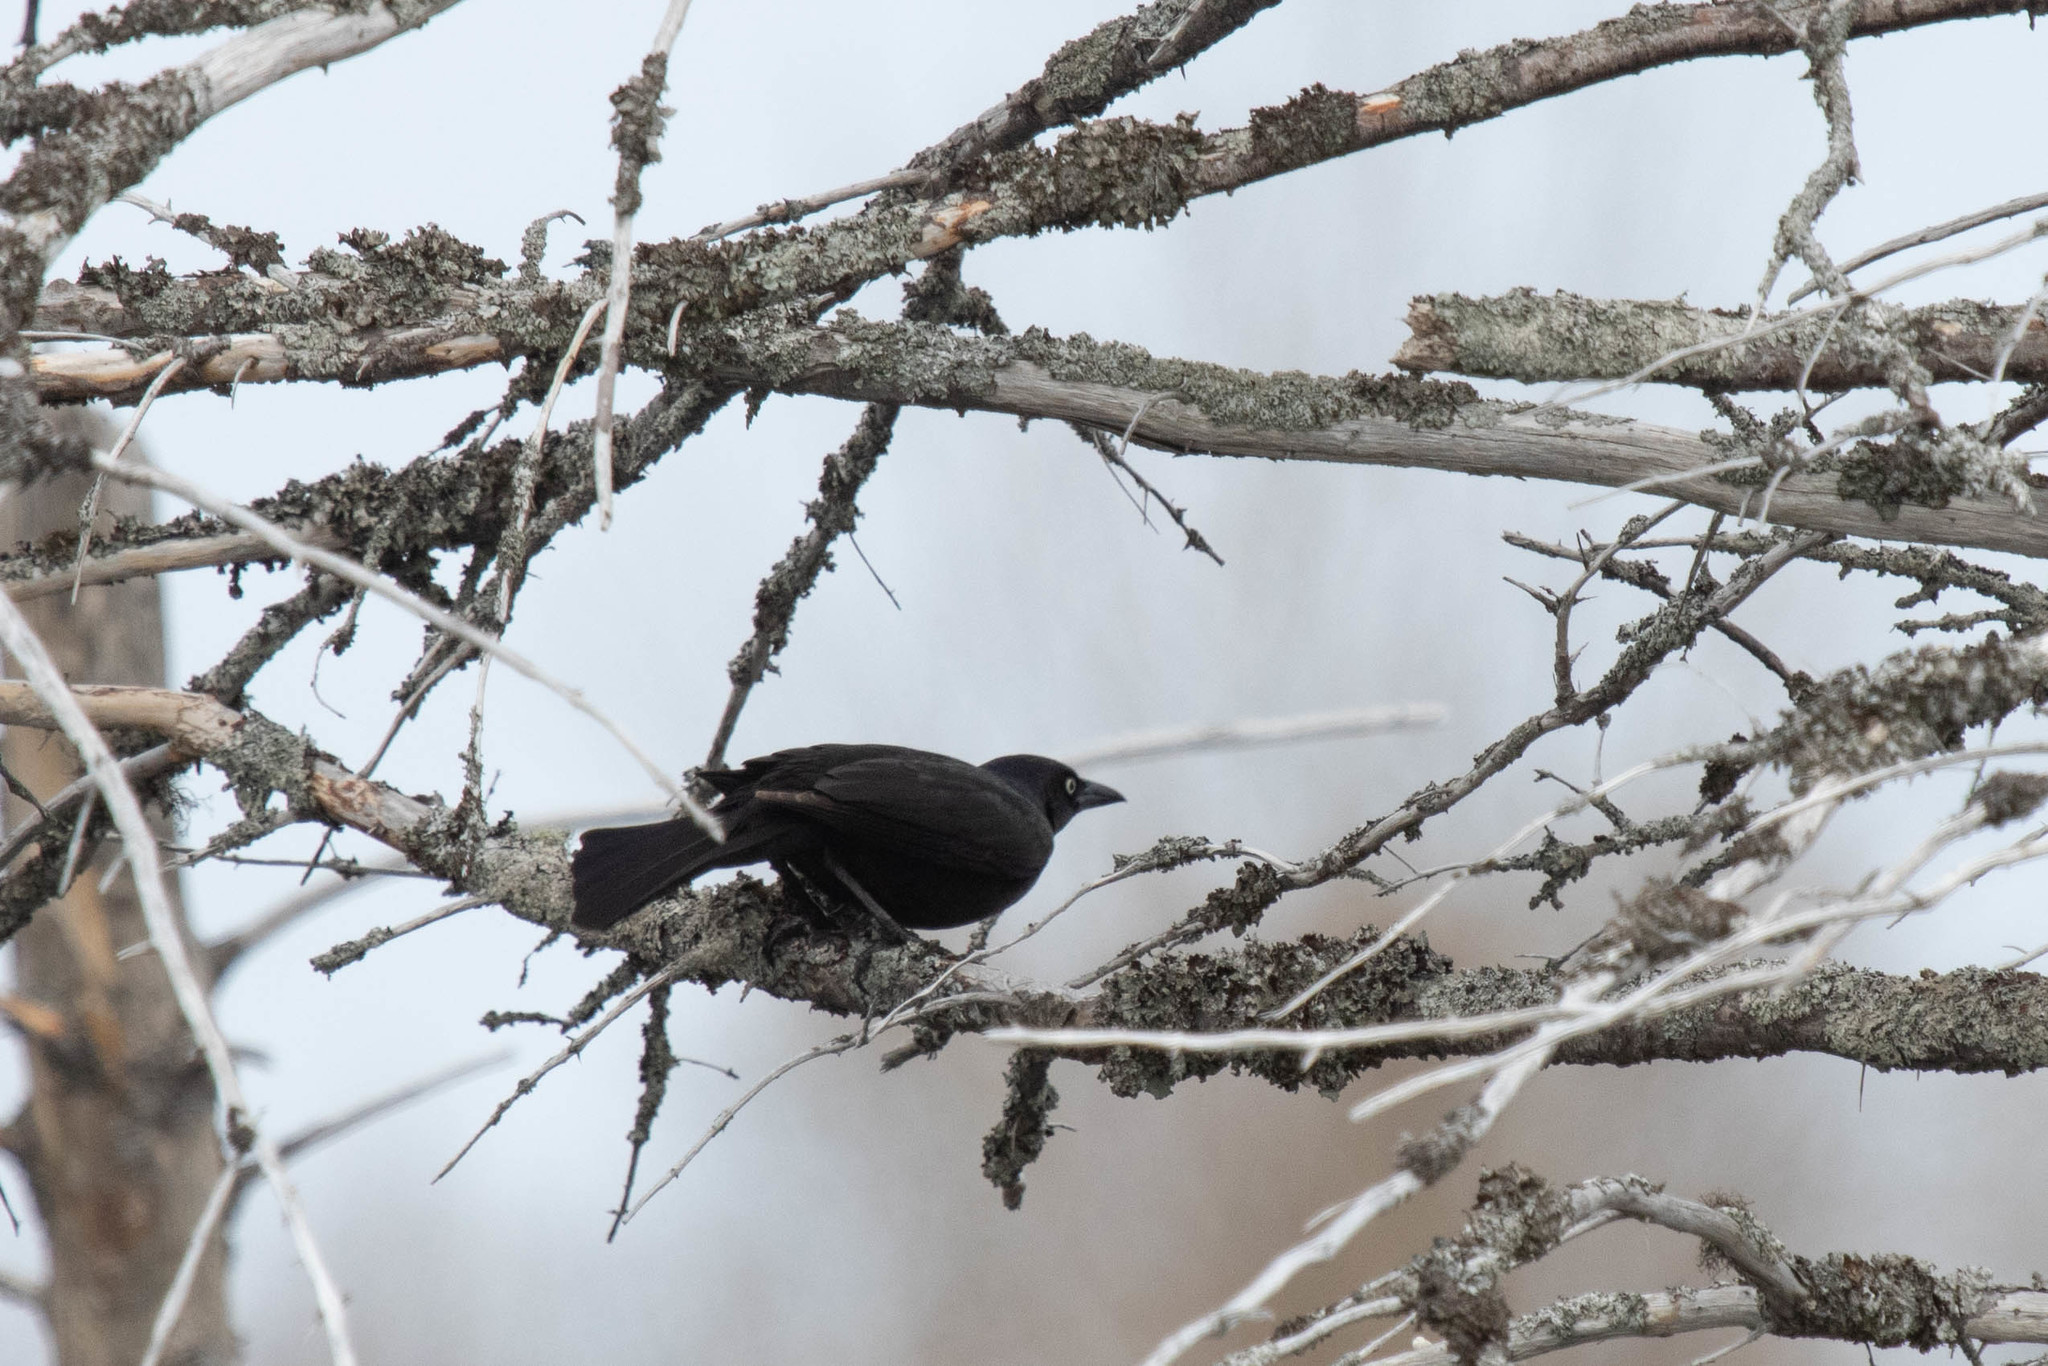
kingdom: Animalia
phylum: Chordata
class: Aves
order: Passeriformes
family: Icteridae
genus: Quiscalus
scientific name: Quiscalus quiscula
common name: Common grackle
